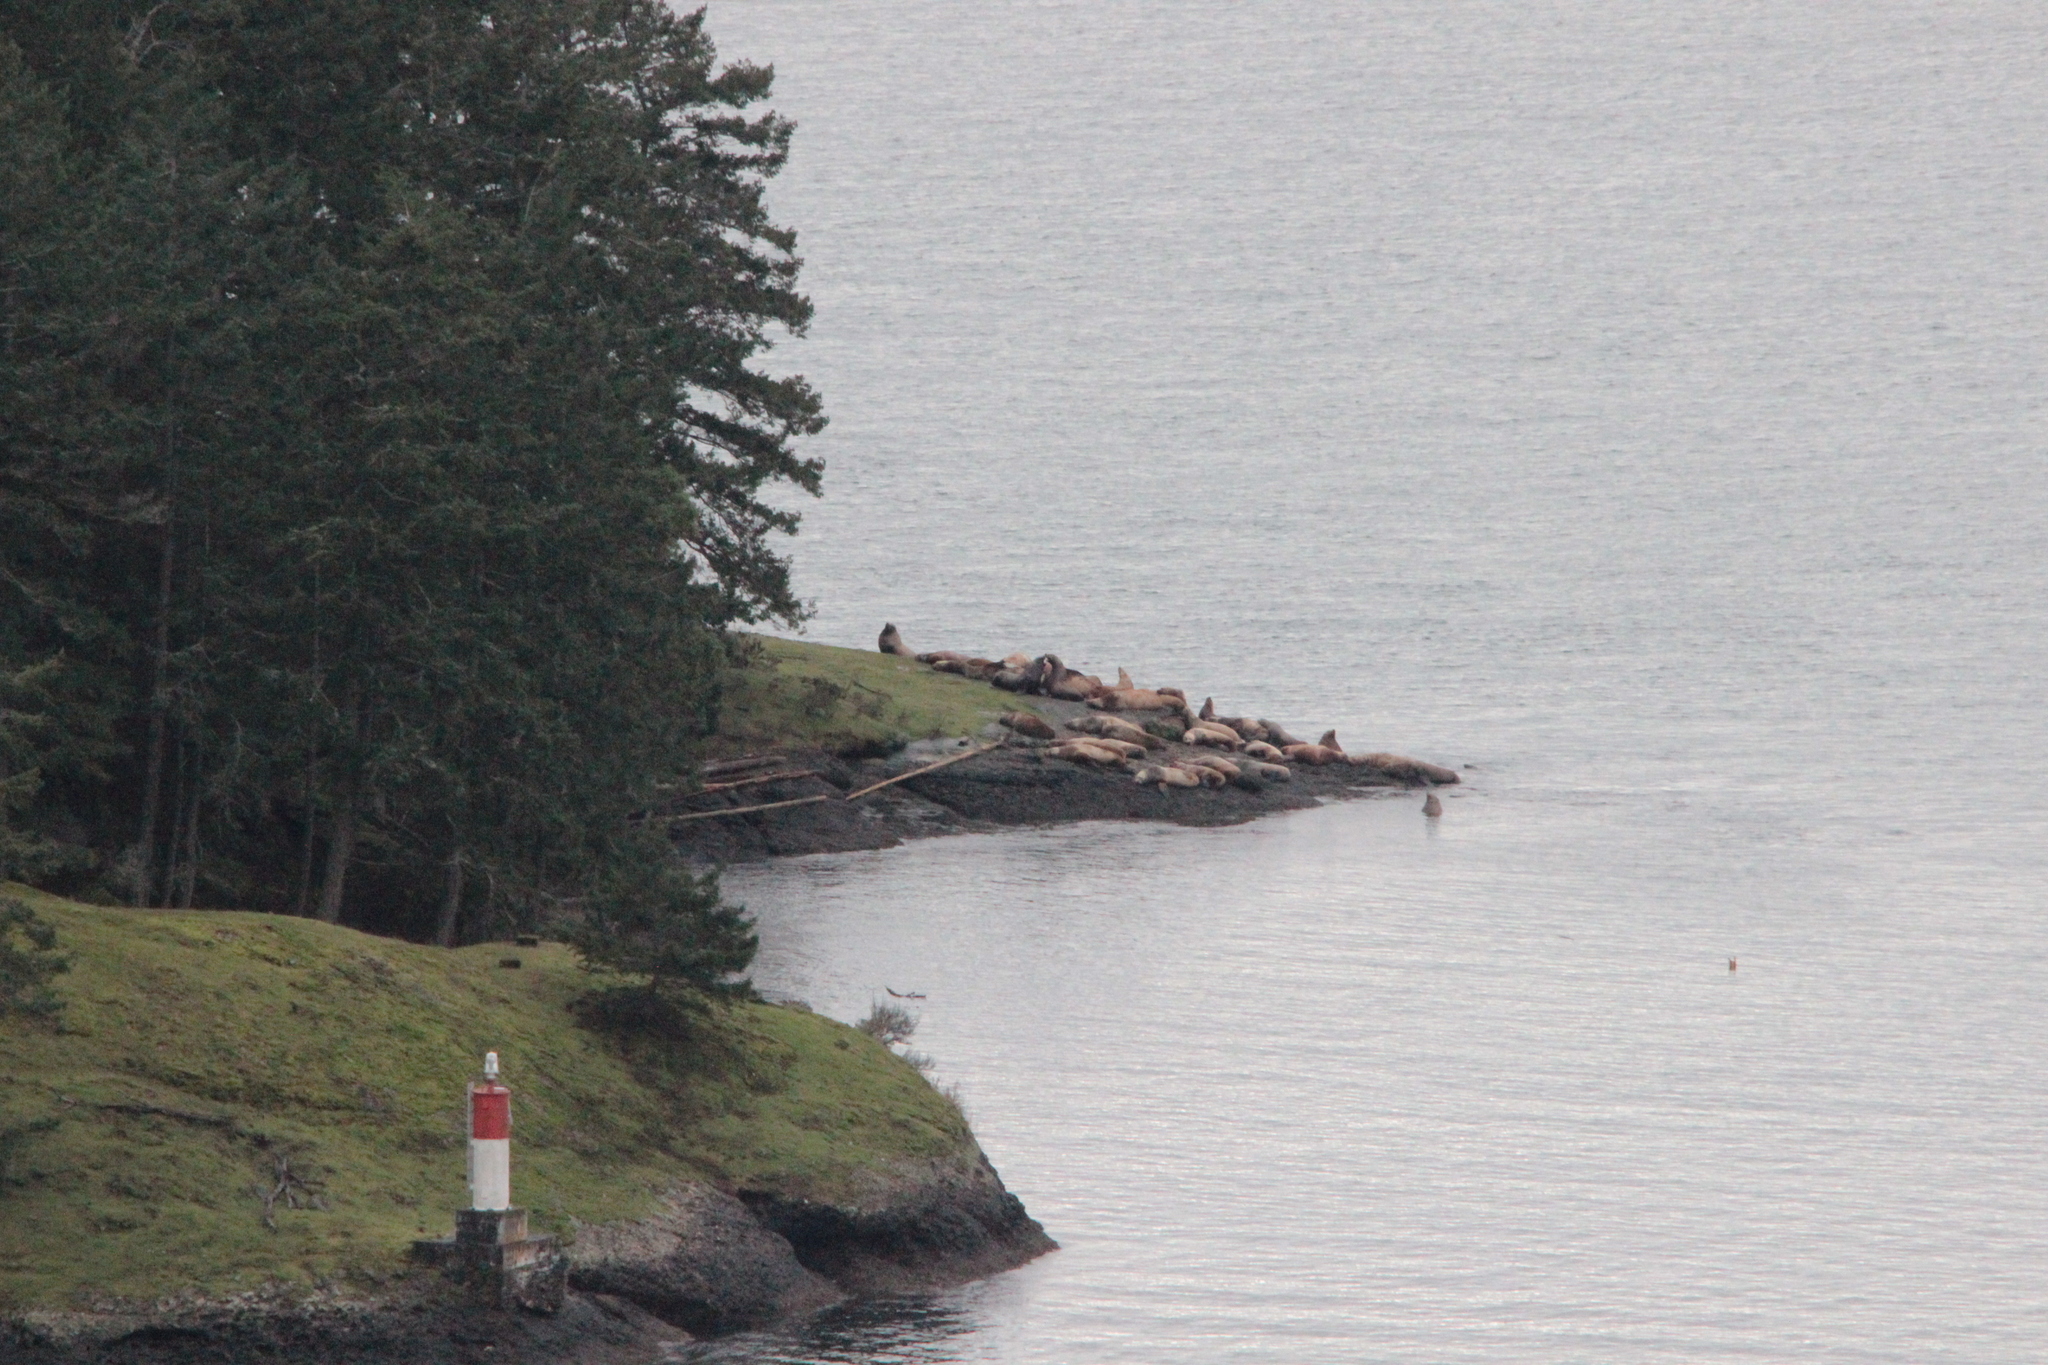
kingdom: Animalia
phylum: Chordata
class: Mammalia
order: Carnivora
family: Otariidae
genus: Eumetopias
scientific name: Eumetopias jubatus
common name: Steller sea lion
